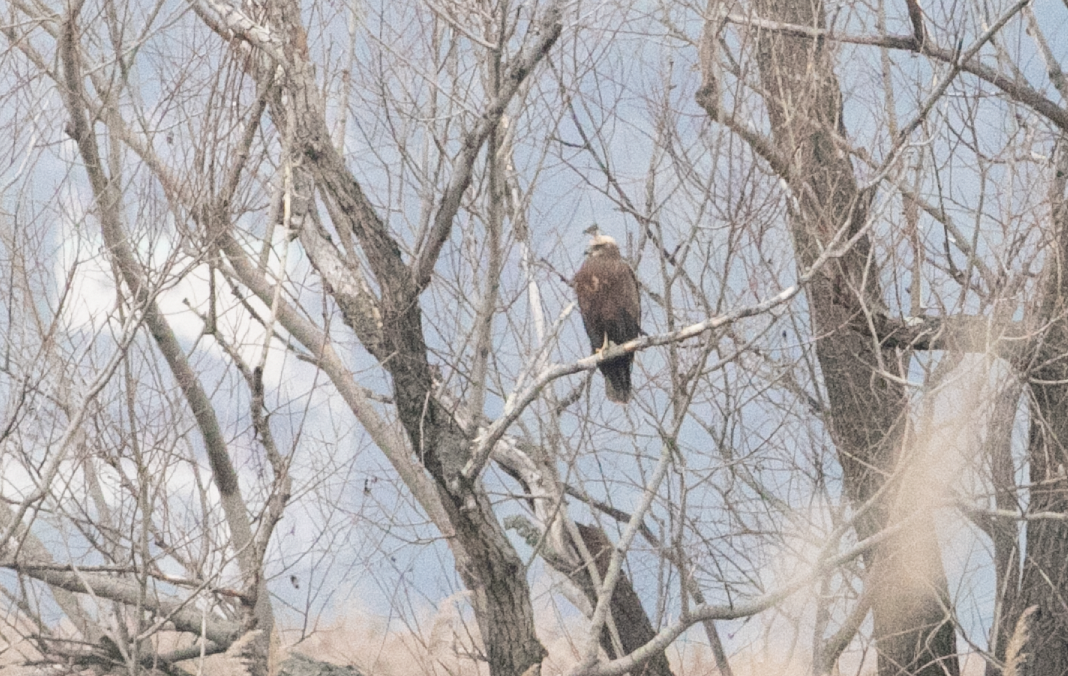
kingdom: Animalia
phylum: Chordata
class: Aves
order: Accipitriformes
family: Accipitridae
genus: Circus
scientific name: Circus aeruginosus
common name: Western marsh harrier
